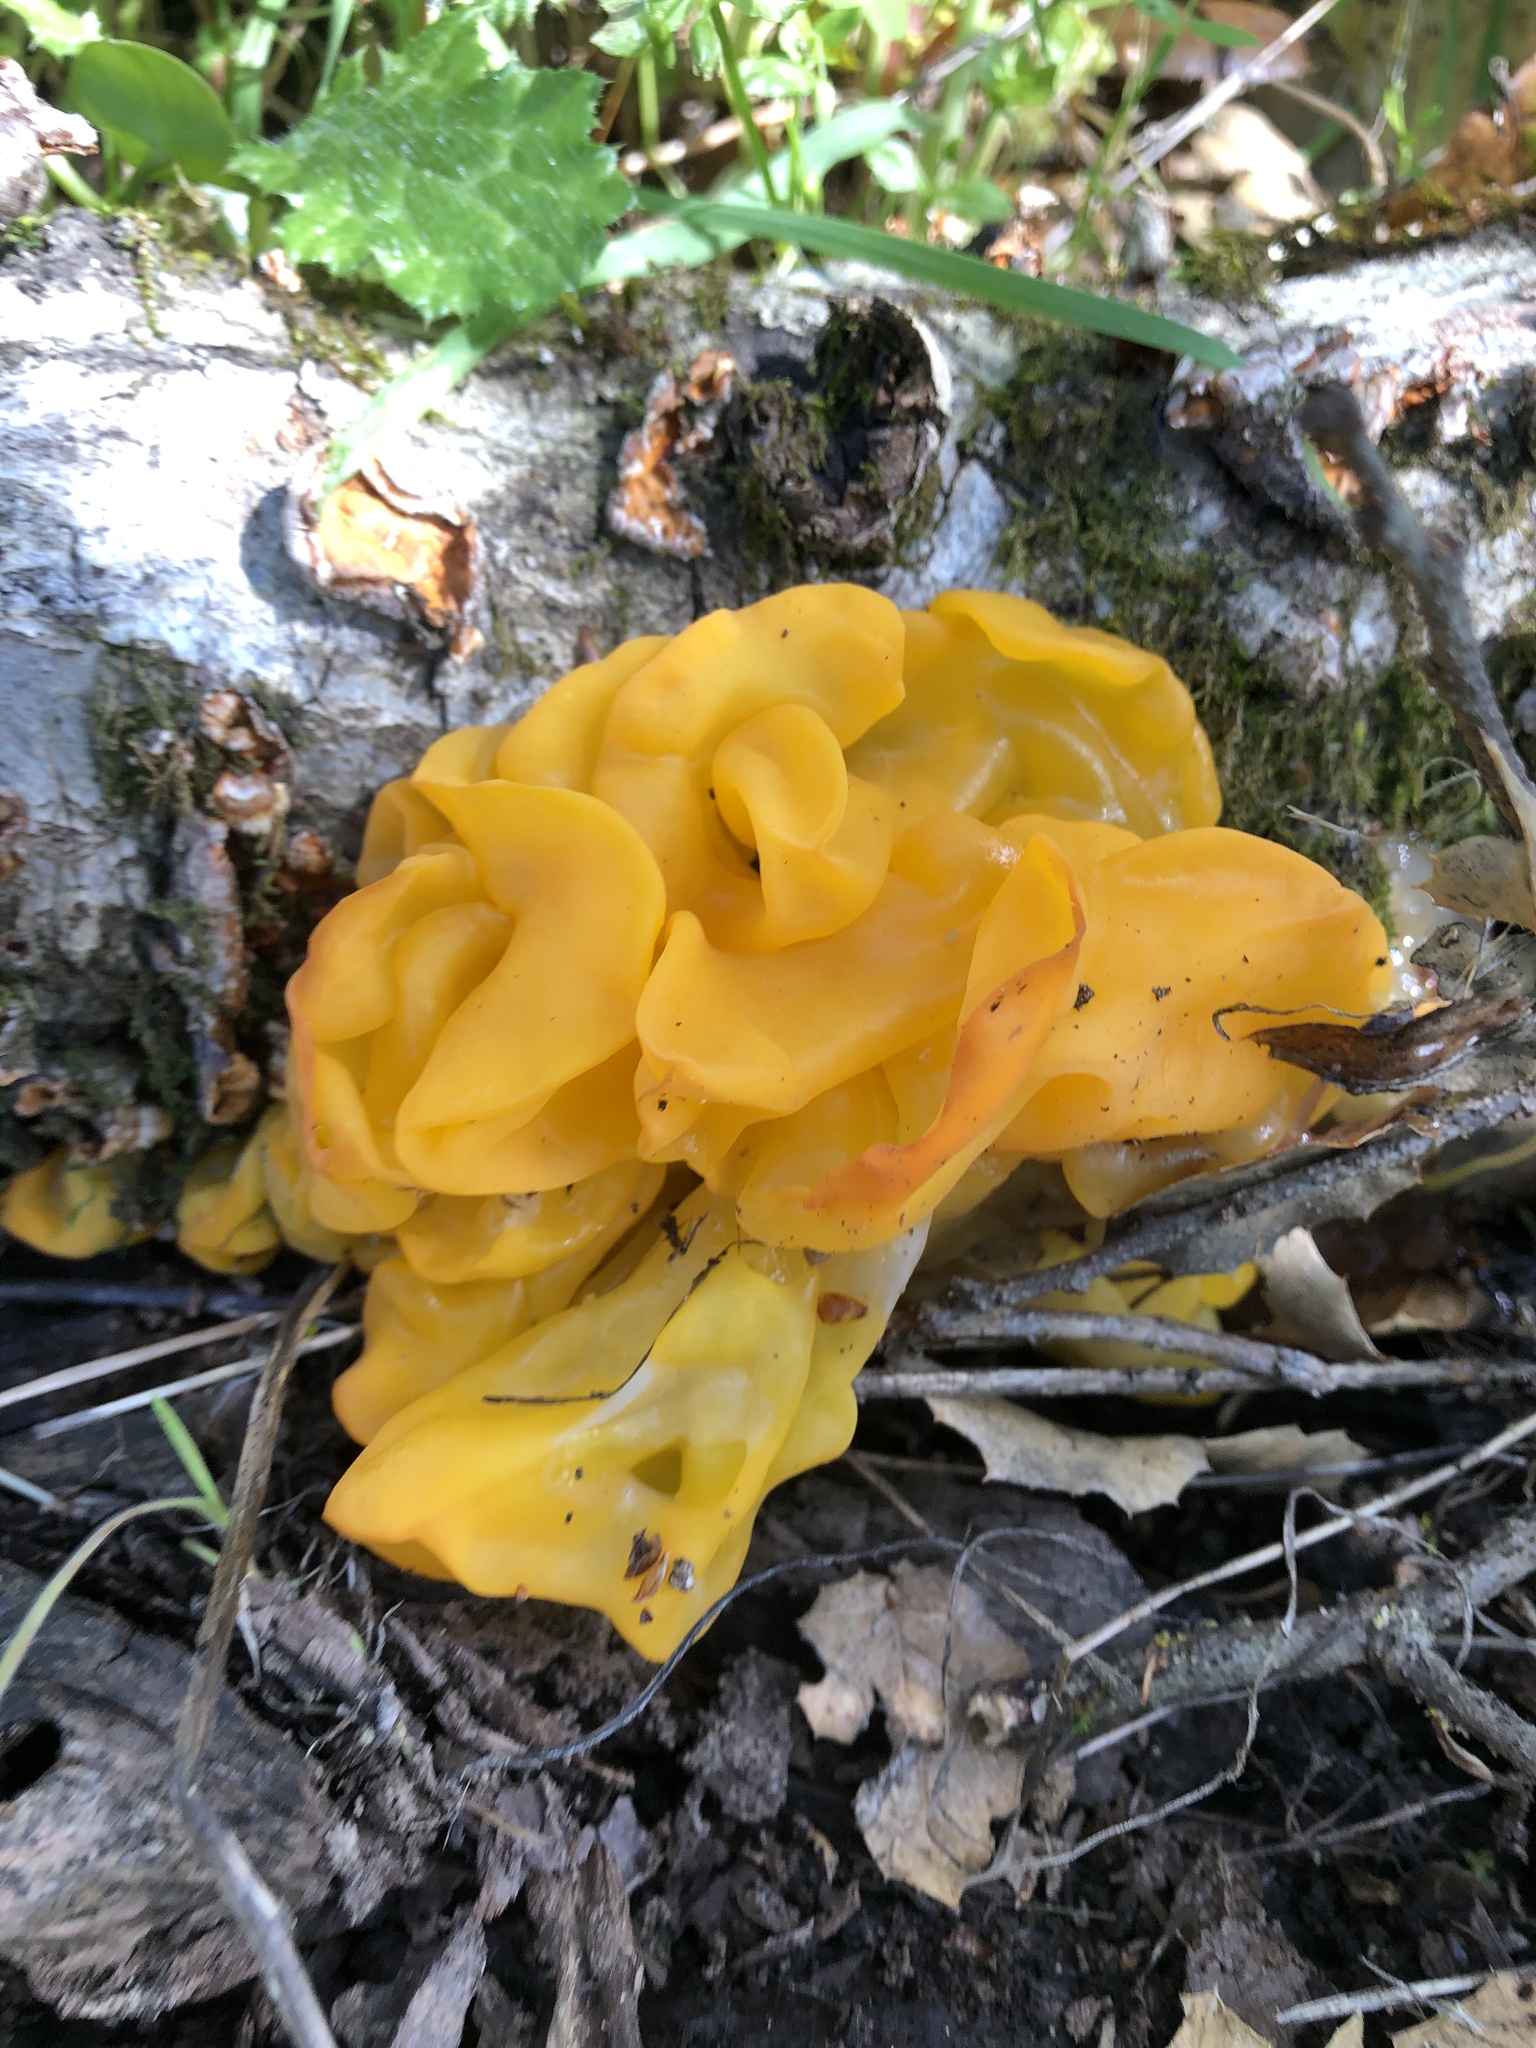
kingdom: Fungi
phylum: Basidiomycota
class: Tremellomycetes
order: Tremellales
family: Naemateliaceae
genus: Naematelia
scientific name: Naematelia aurantia
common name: Golden ear
